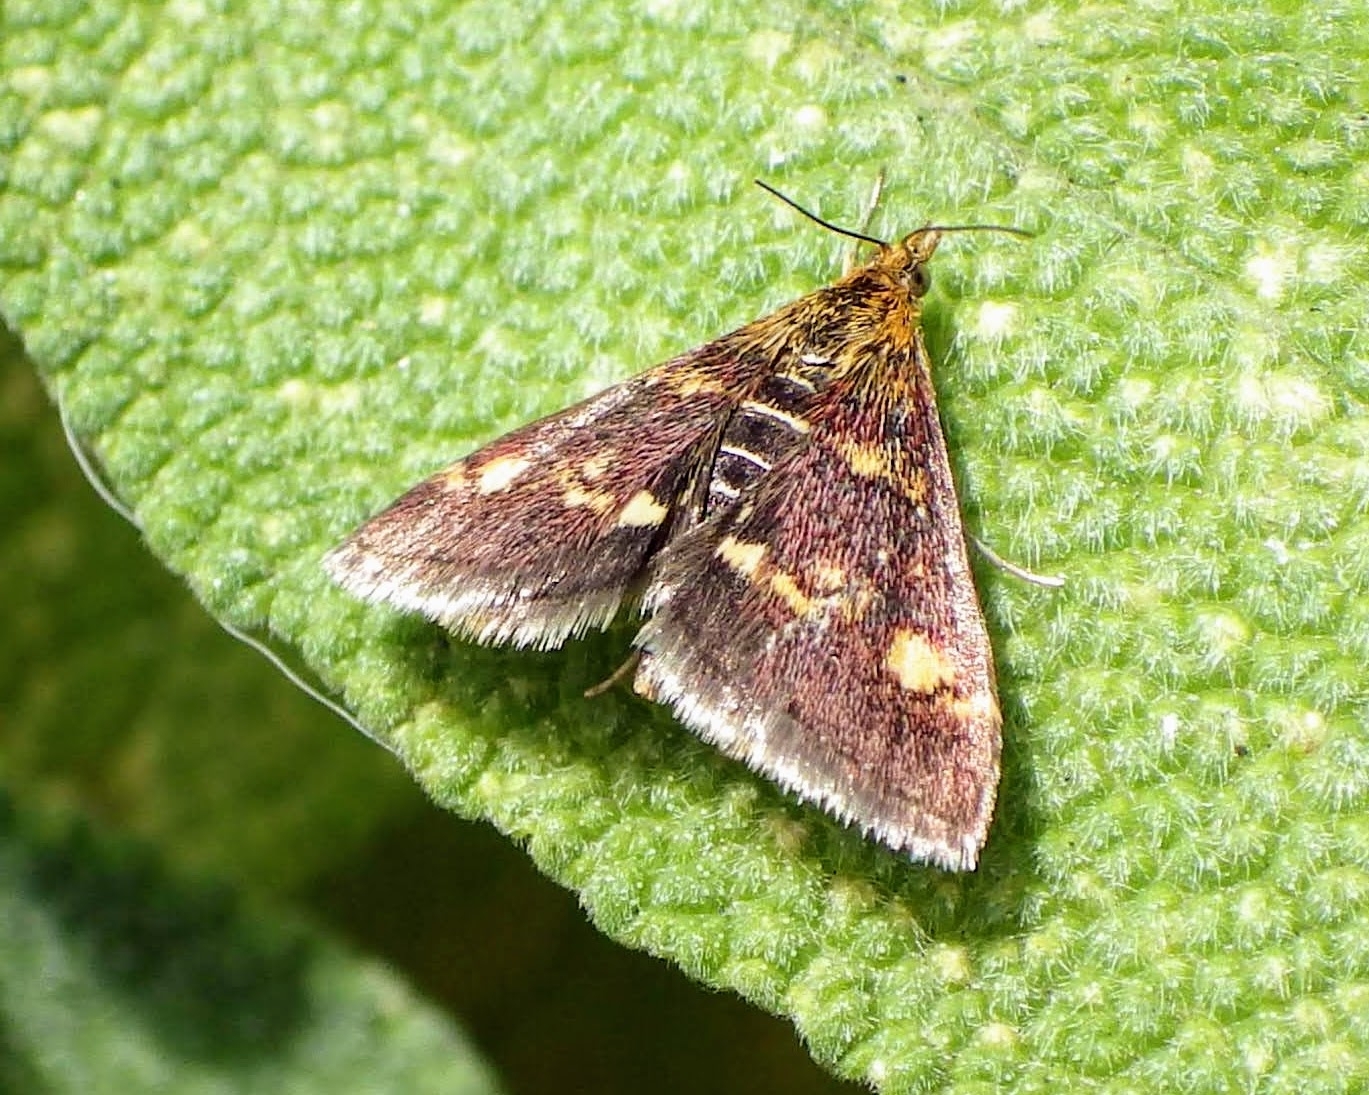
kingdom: Animalia
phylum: Arthropoda
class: Insecta
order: Lepidoptera
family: Crambidae
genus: Pyrausta
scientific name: Pyrausta aurata
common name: Small purple & gold
